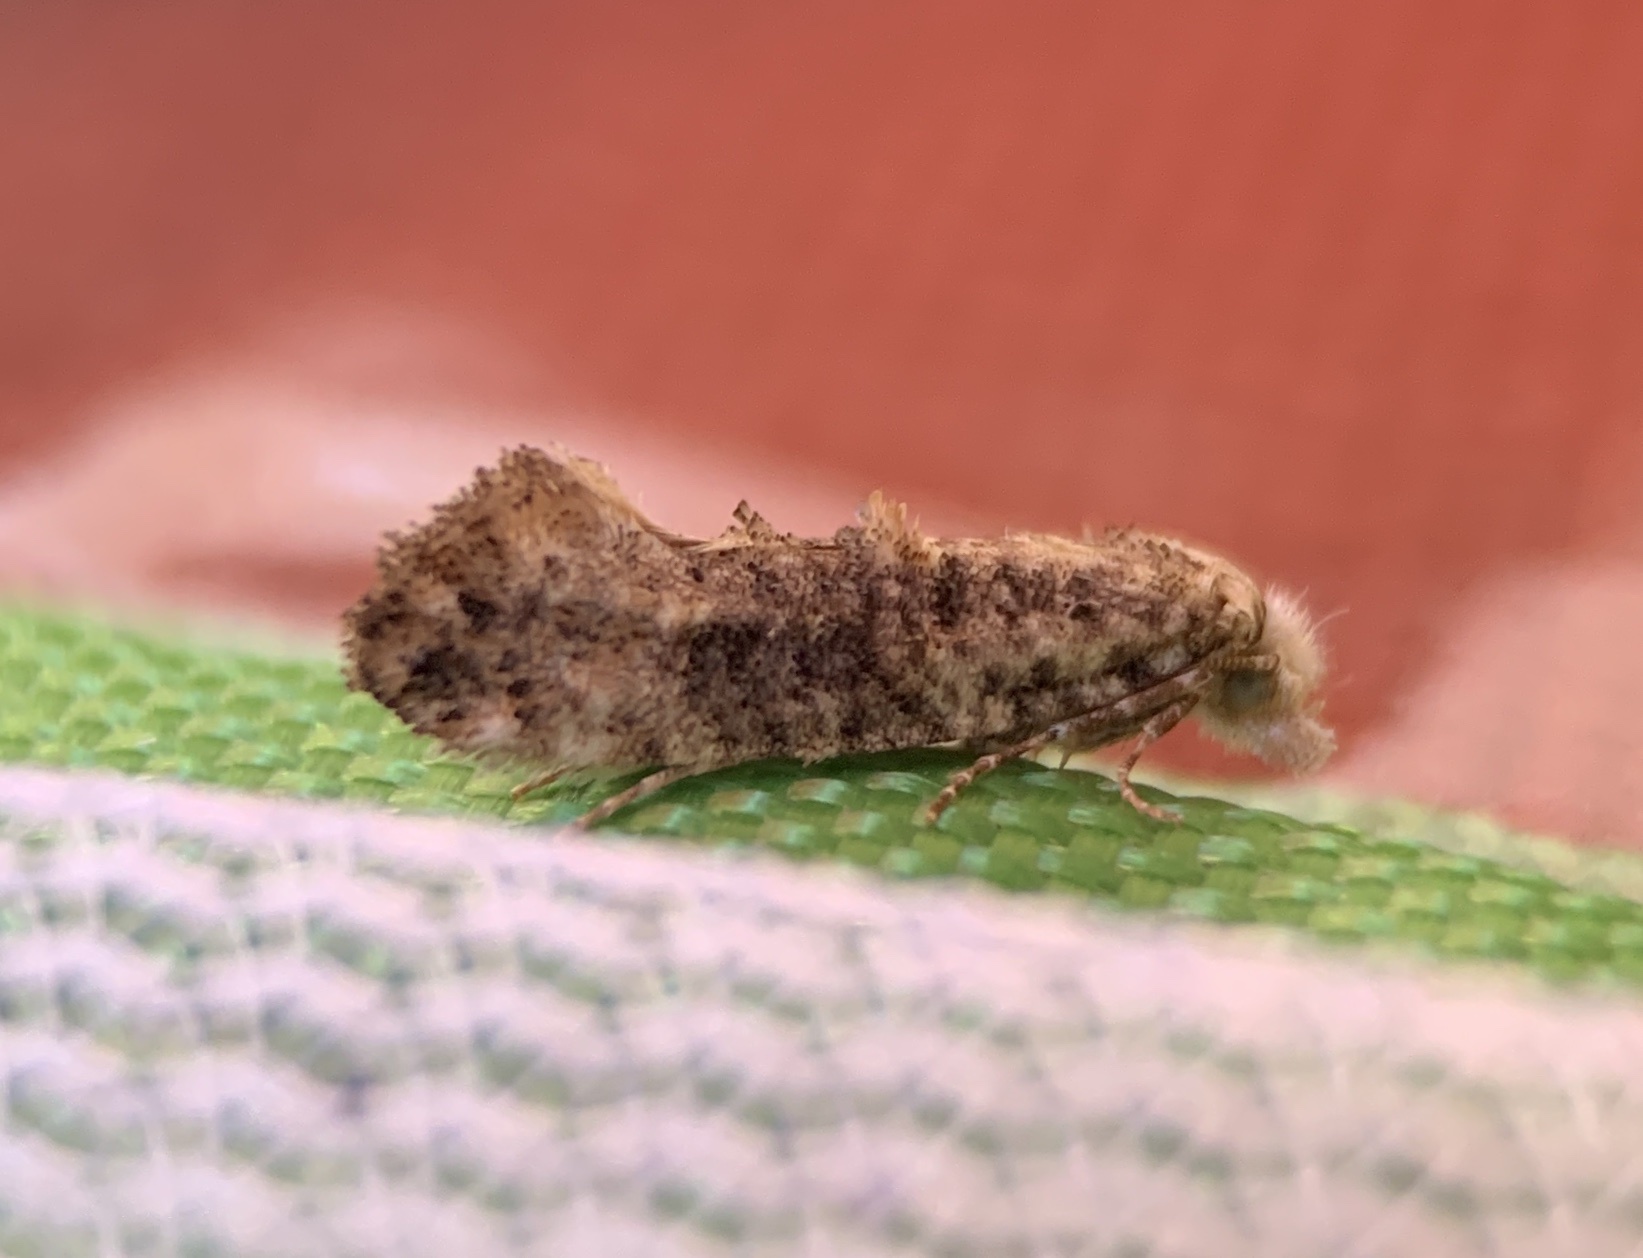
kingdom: Animalia
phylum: Arthropoda
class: Insecta
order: Lepidoptera
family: Tineidae
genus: Xylesthia
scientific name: Xylesthia pruniramiella
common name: Clemens' bark moth
